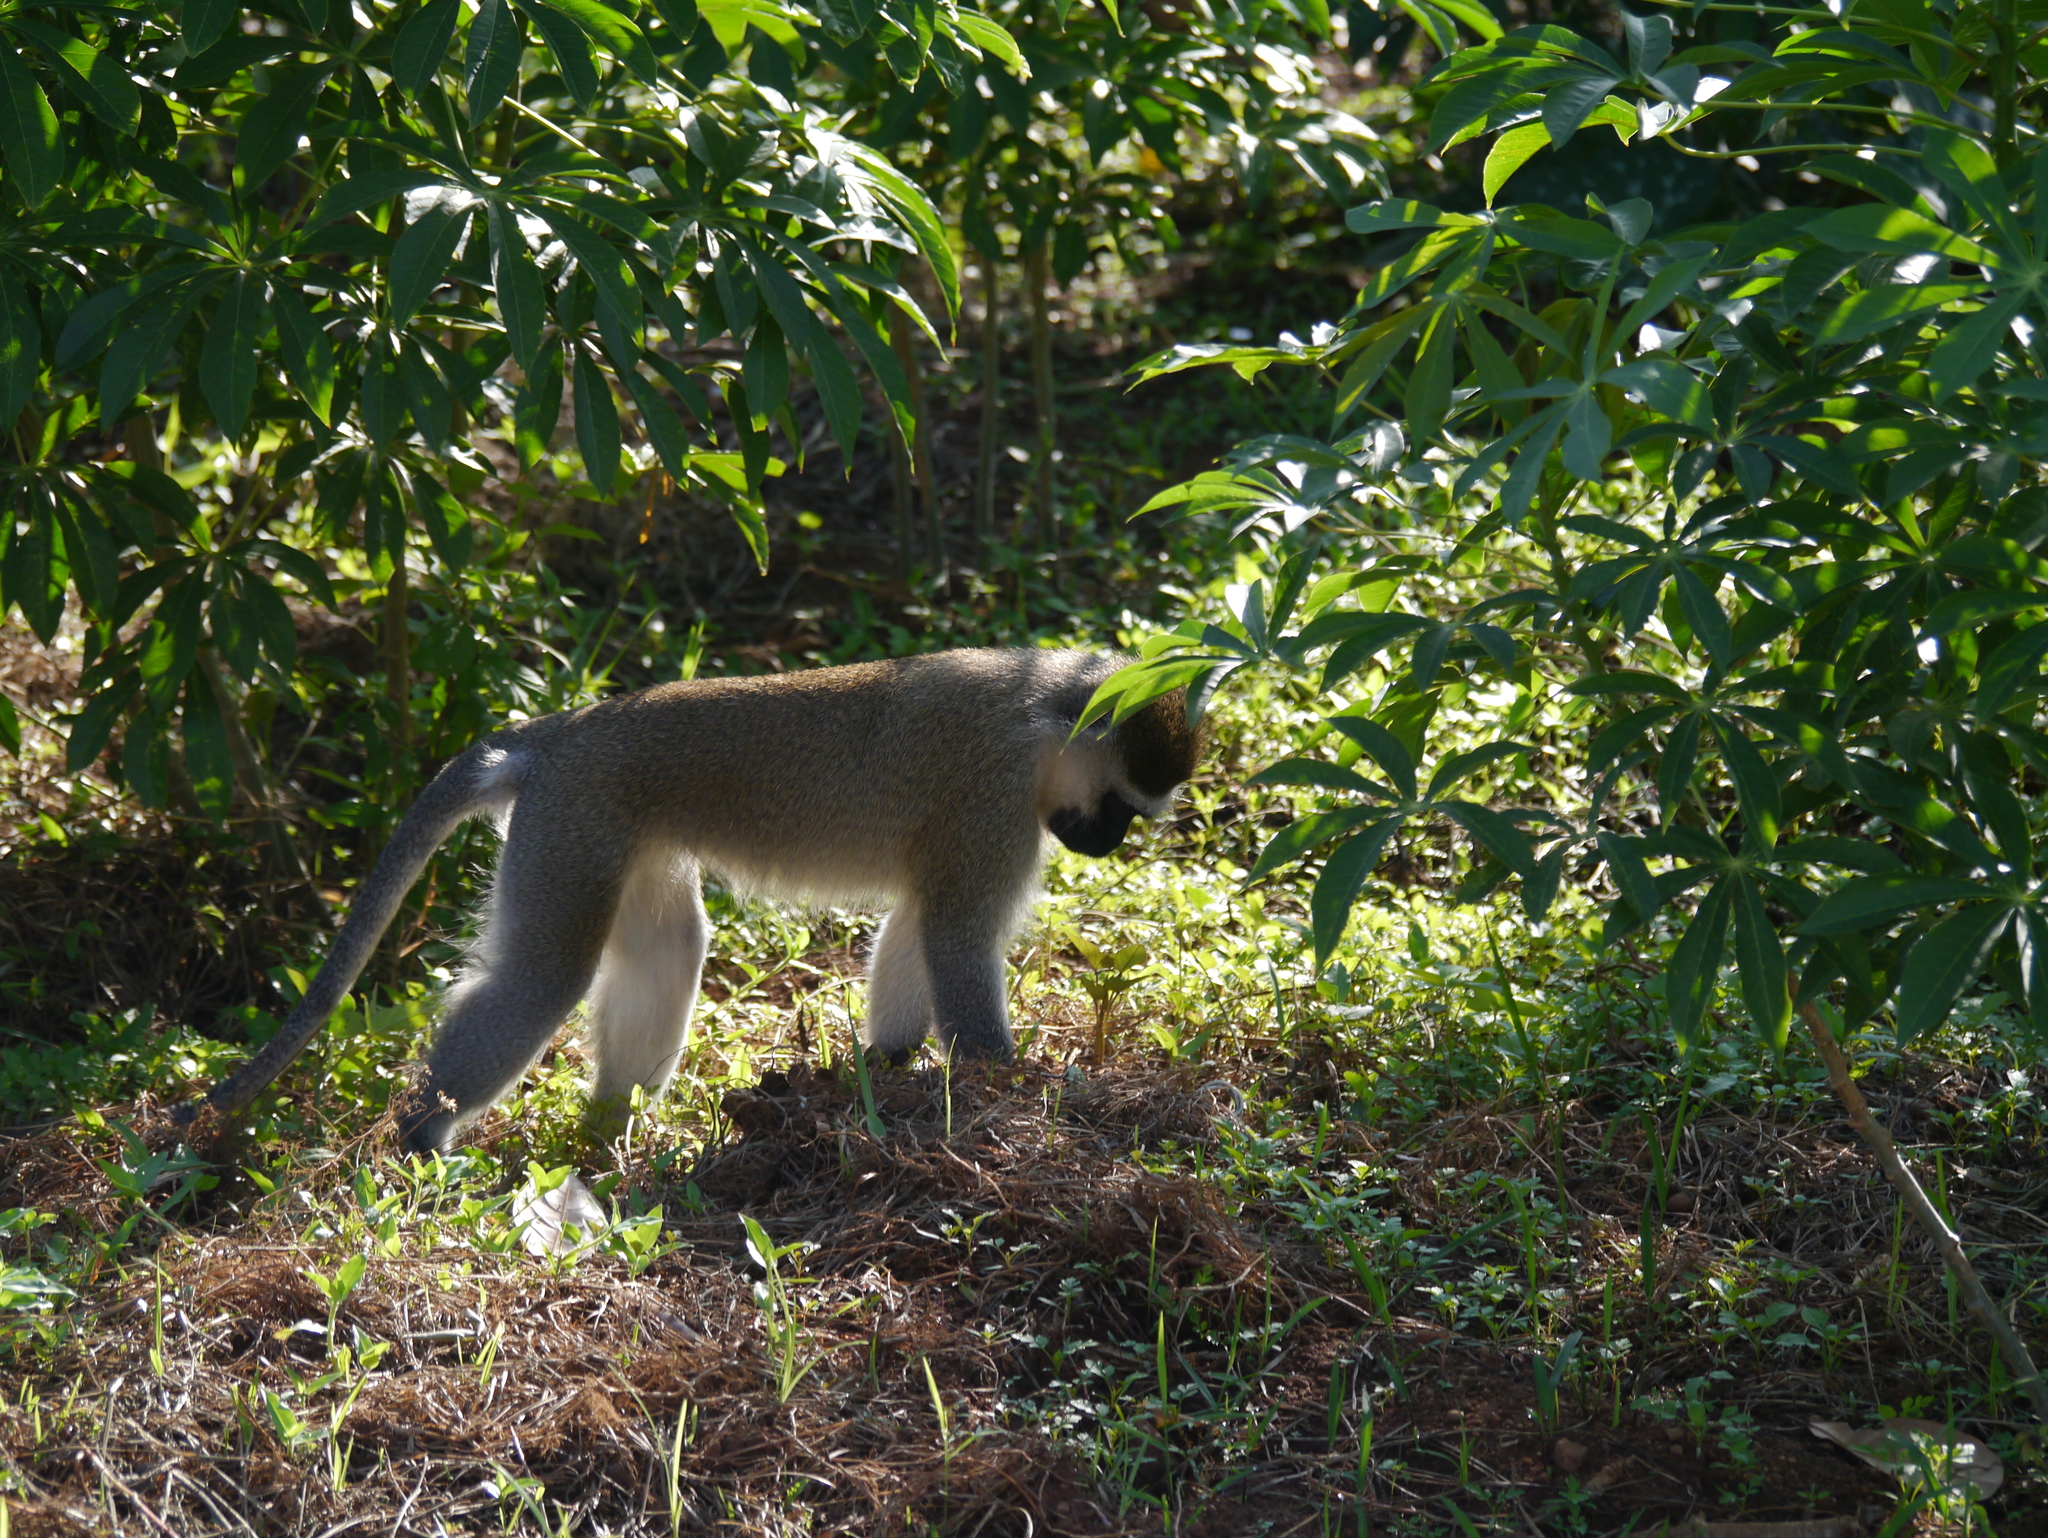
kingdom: Animalia
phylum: Chordata
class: Mammalia
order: Primates
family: Cercopithecidae
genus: Chlorocebus
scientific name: Chlorocebus pygerythrus
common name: Vervet monkey
